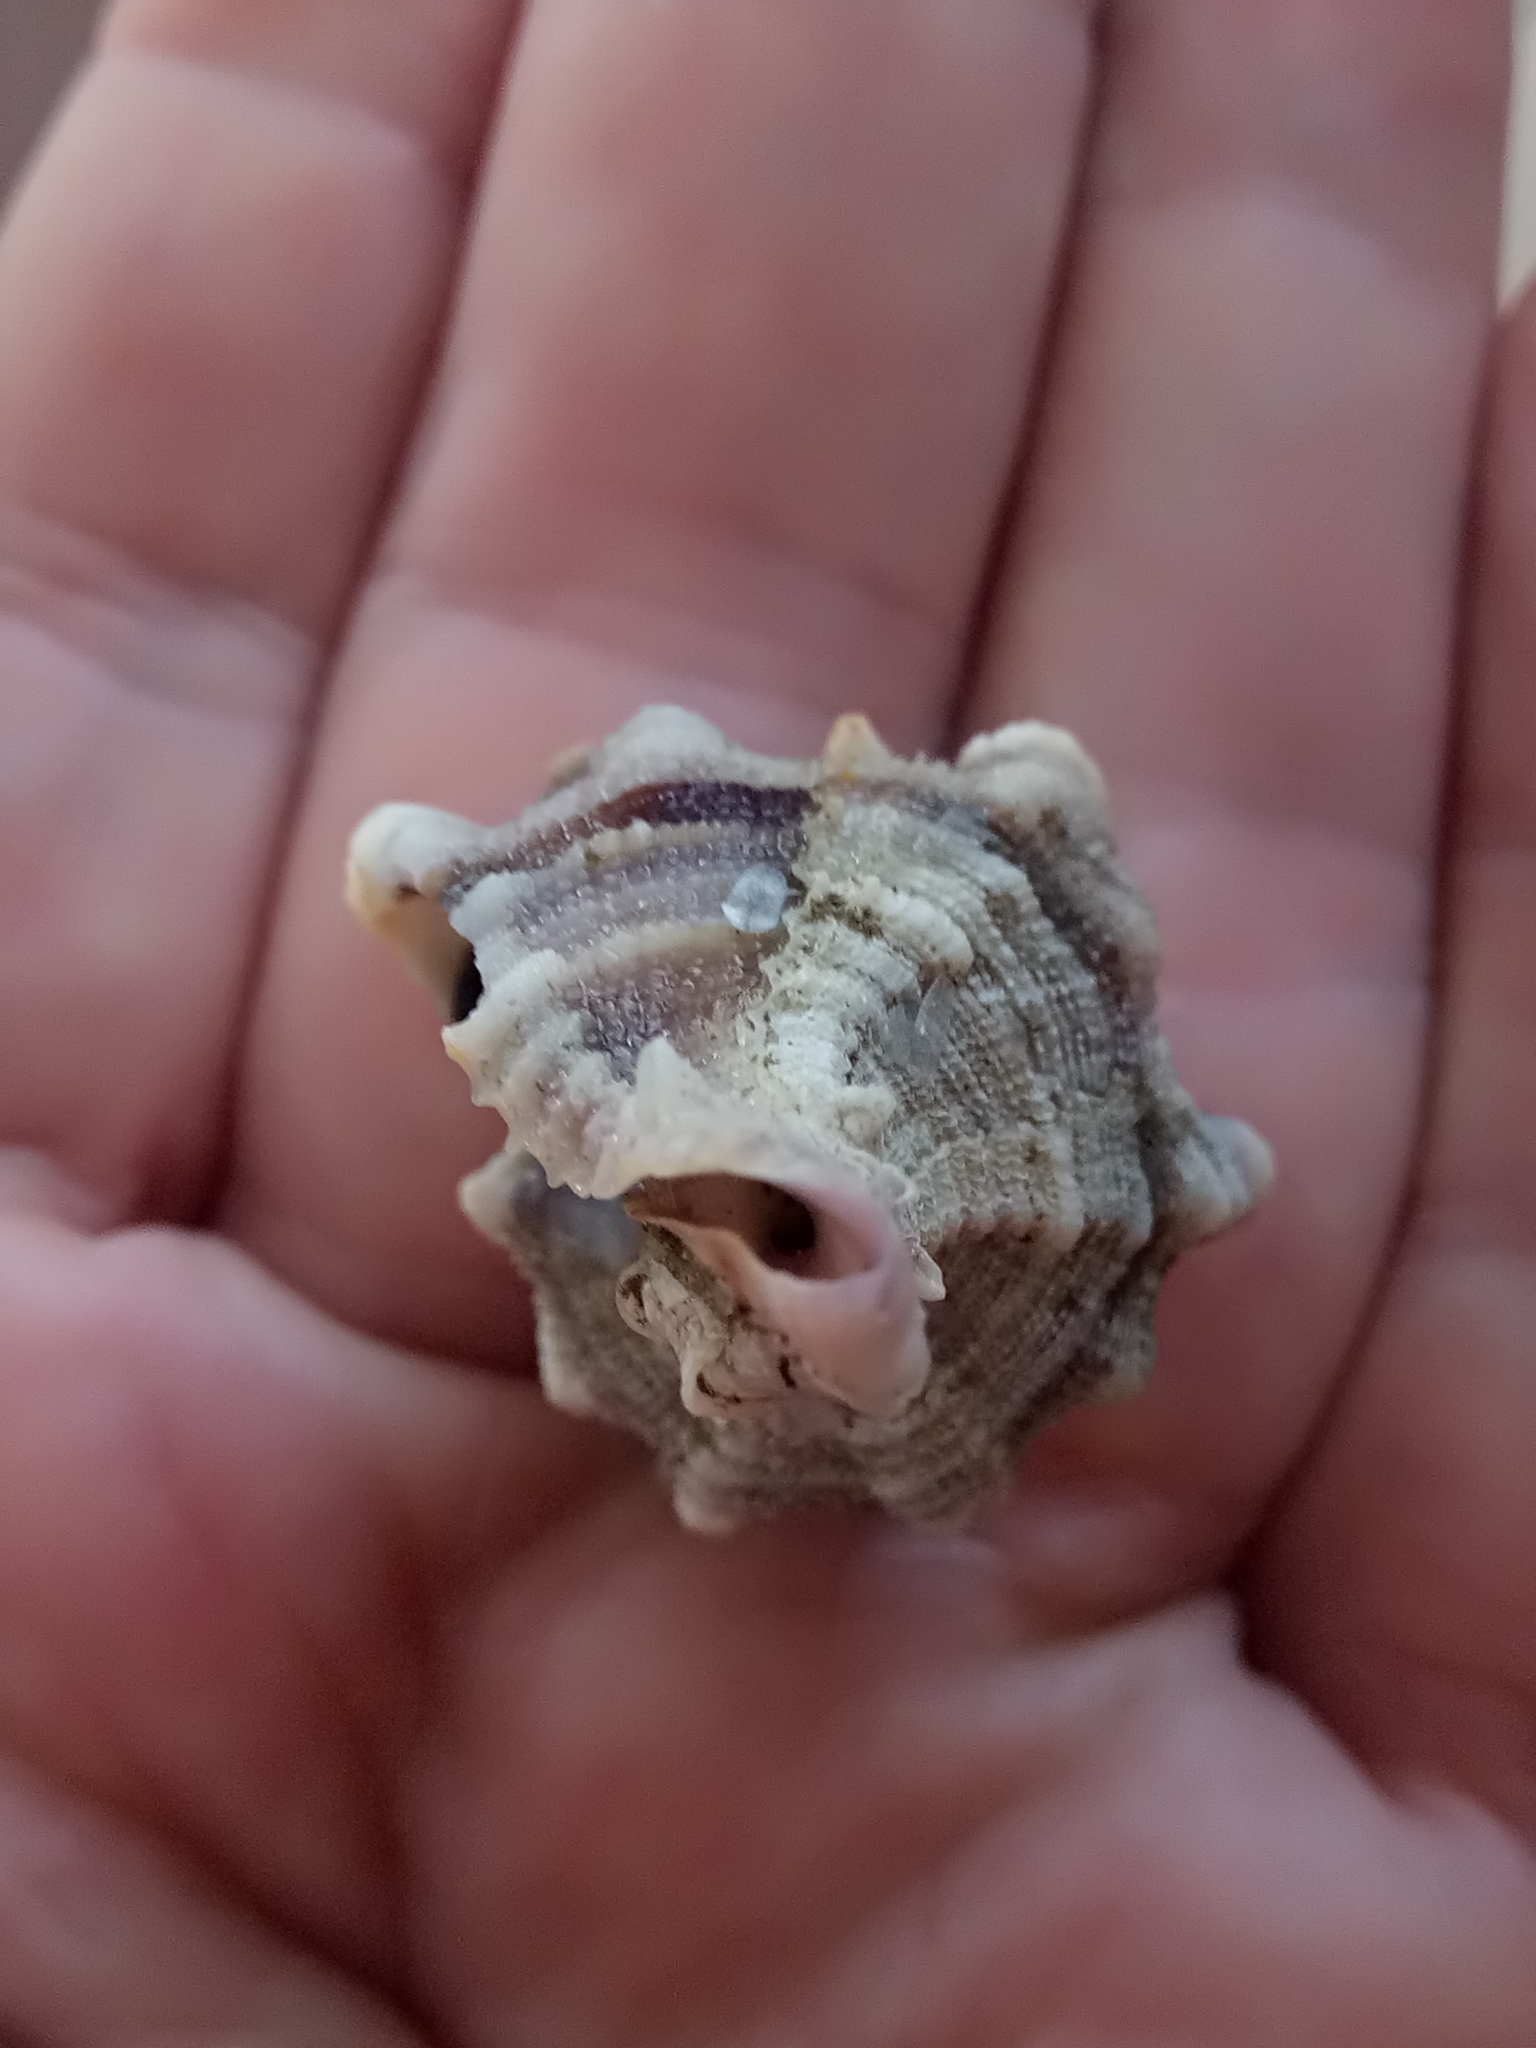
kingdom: Animalia
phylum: Mollusca
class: Gastropoda
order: Neogastropoda
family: Muricidae
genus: Hexaplex
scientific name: Hexaplex trunculus
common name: Banded dye-murex
